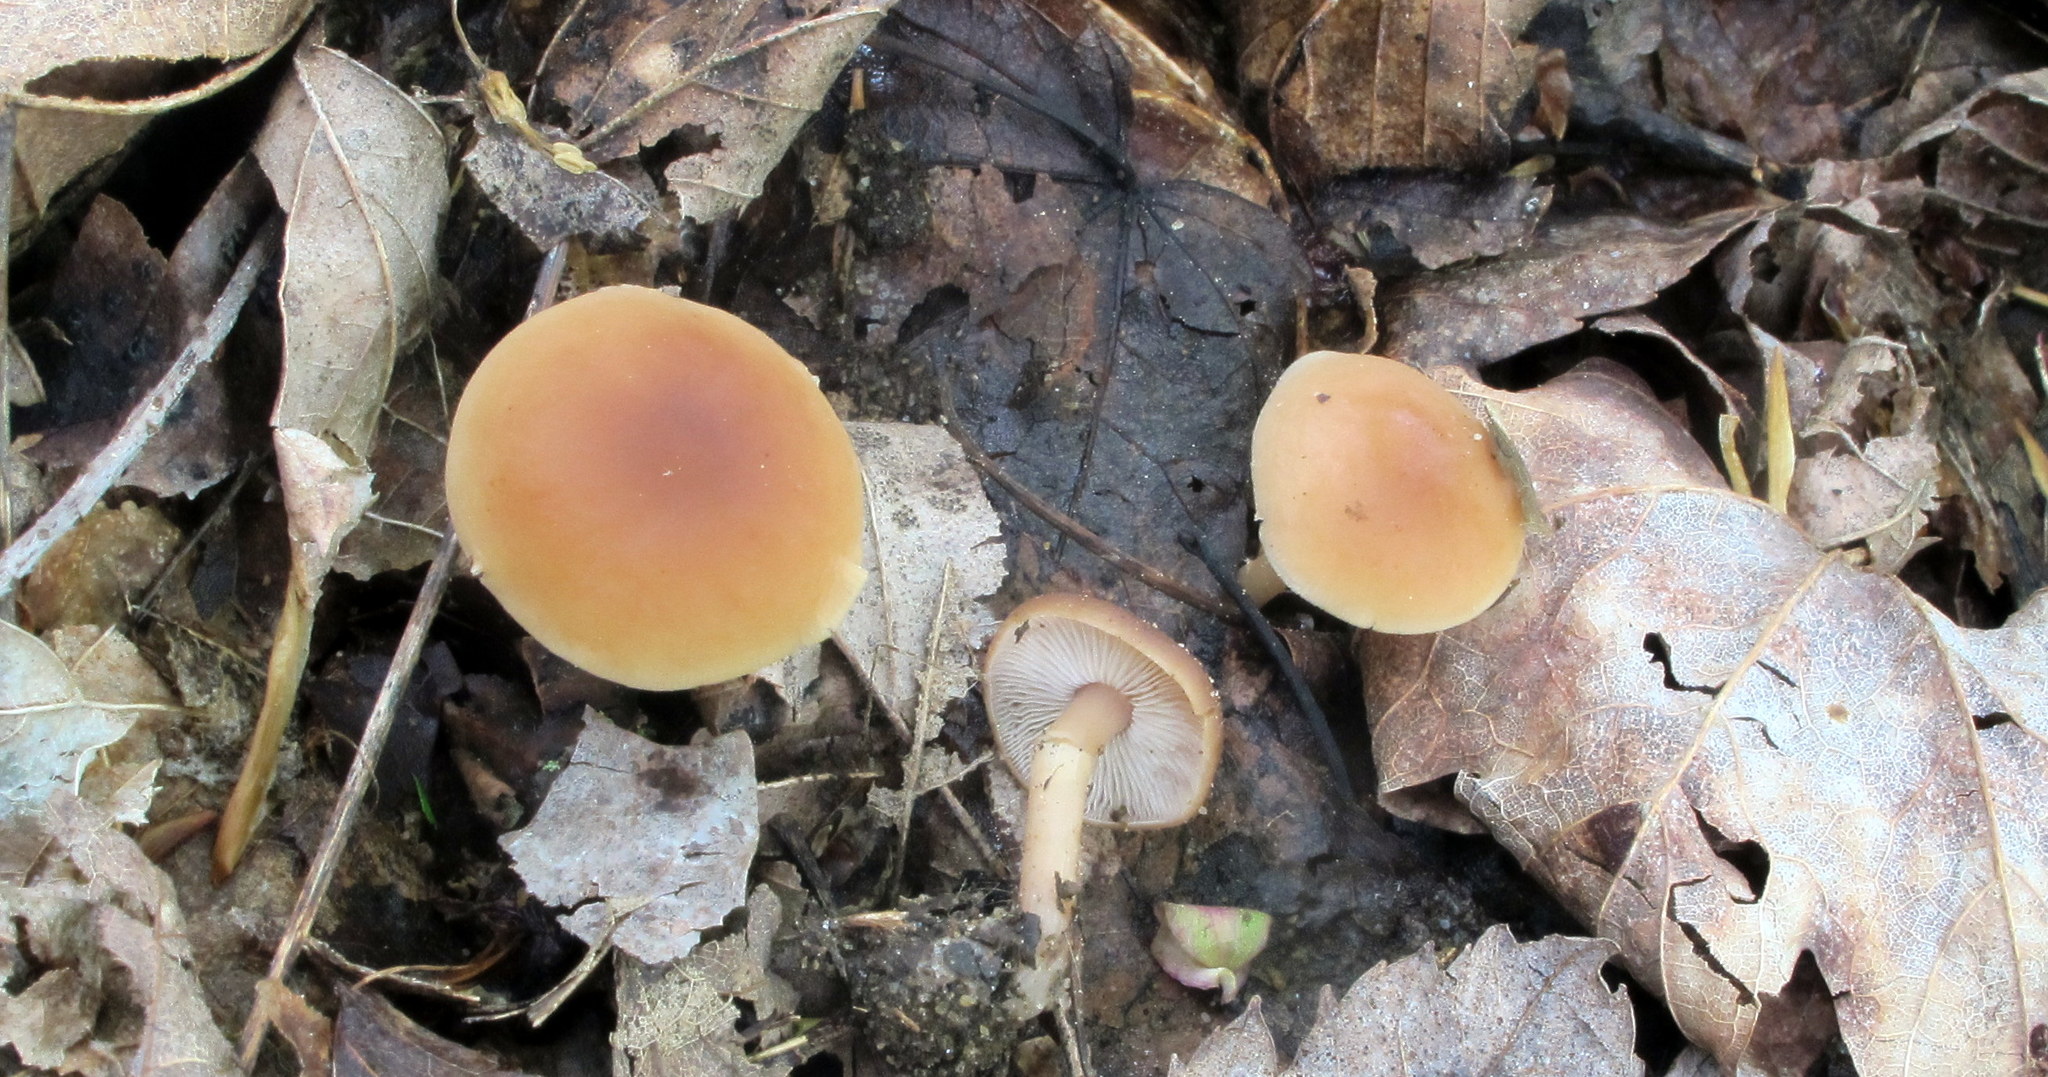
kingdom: Fungi
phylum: Basidiomycota
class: Agaricomycetes
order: Agaricales
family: Omphalotaceae
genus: Gymnopus
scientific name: Gymnopus earleae
